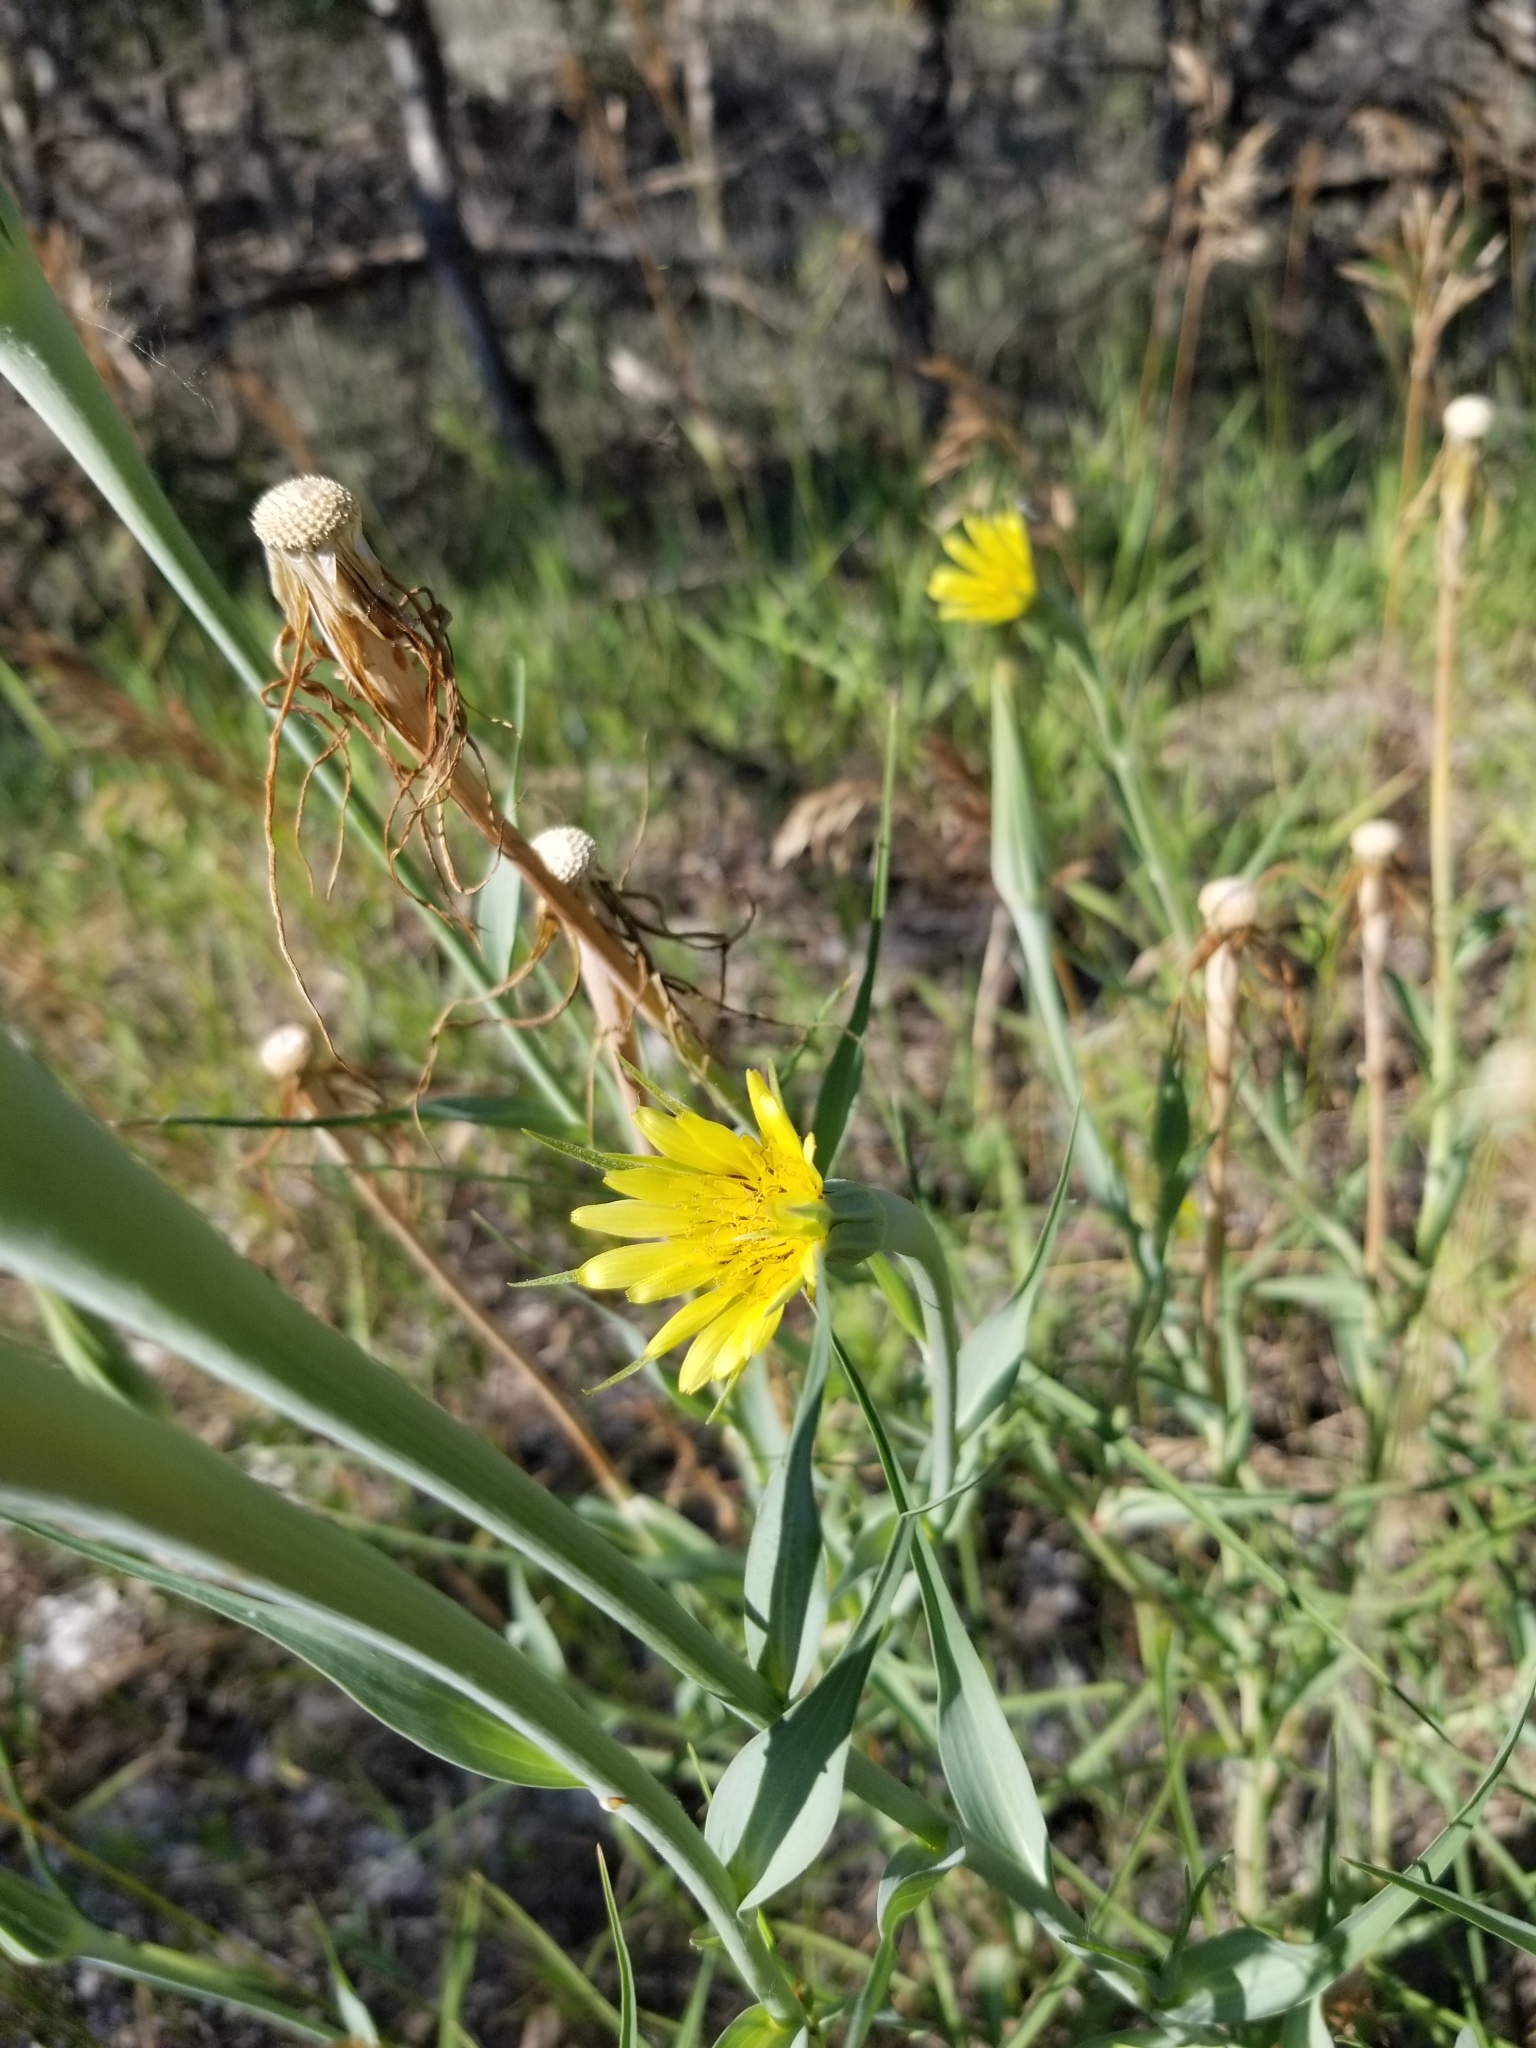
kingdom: Plantae
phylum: Tracheophyta
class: Magnoliopsida
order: Asterales
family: Asteraceae
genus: Tragopogon
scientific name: Tragopogon dubius
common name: Yellow salsify
